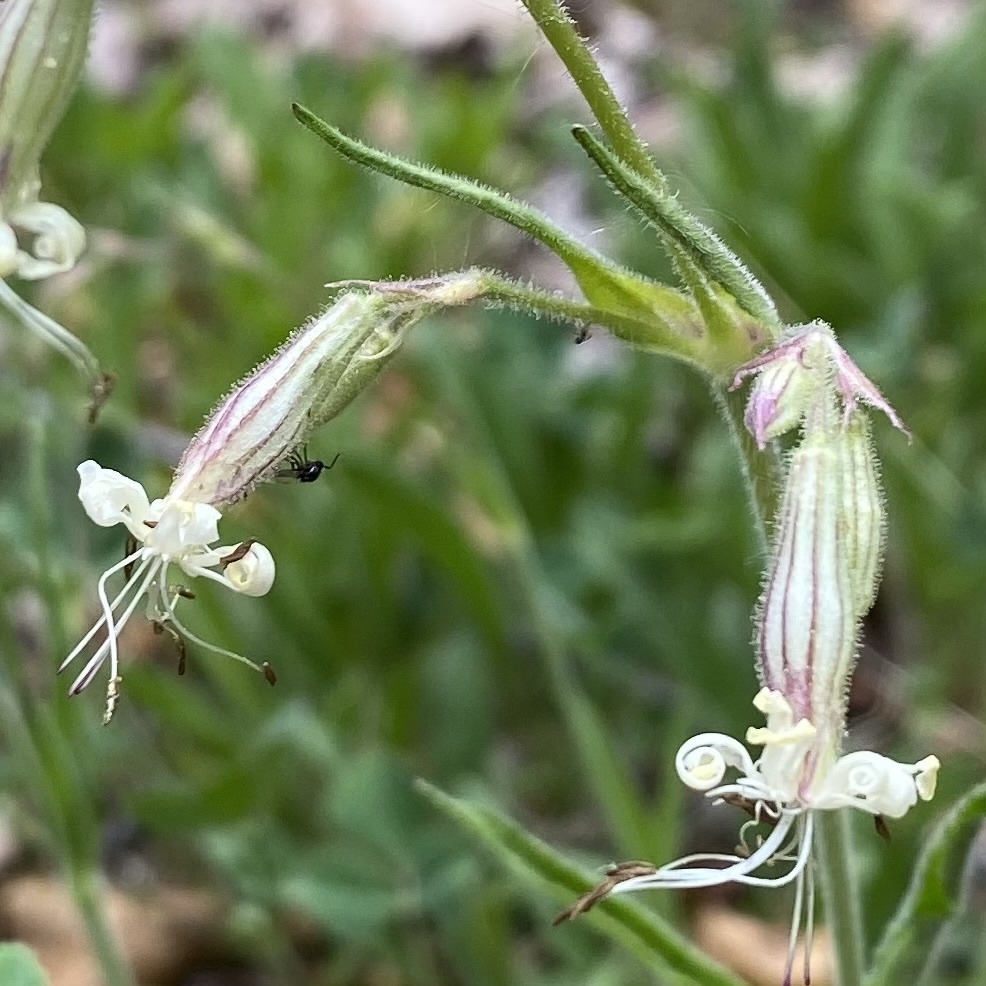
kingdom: Plantae
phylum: Tracheophyta
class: Magnoliopsida
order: Caryophyllales
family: Caryophyllaceae
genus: Silene
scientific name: Silene nutans
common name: Nottingham catchfly
